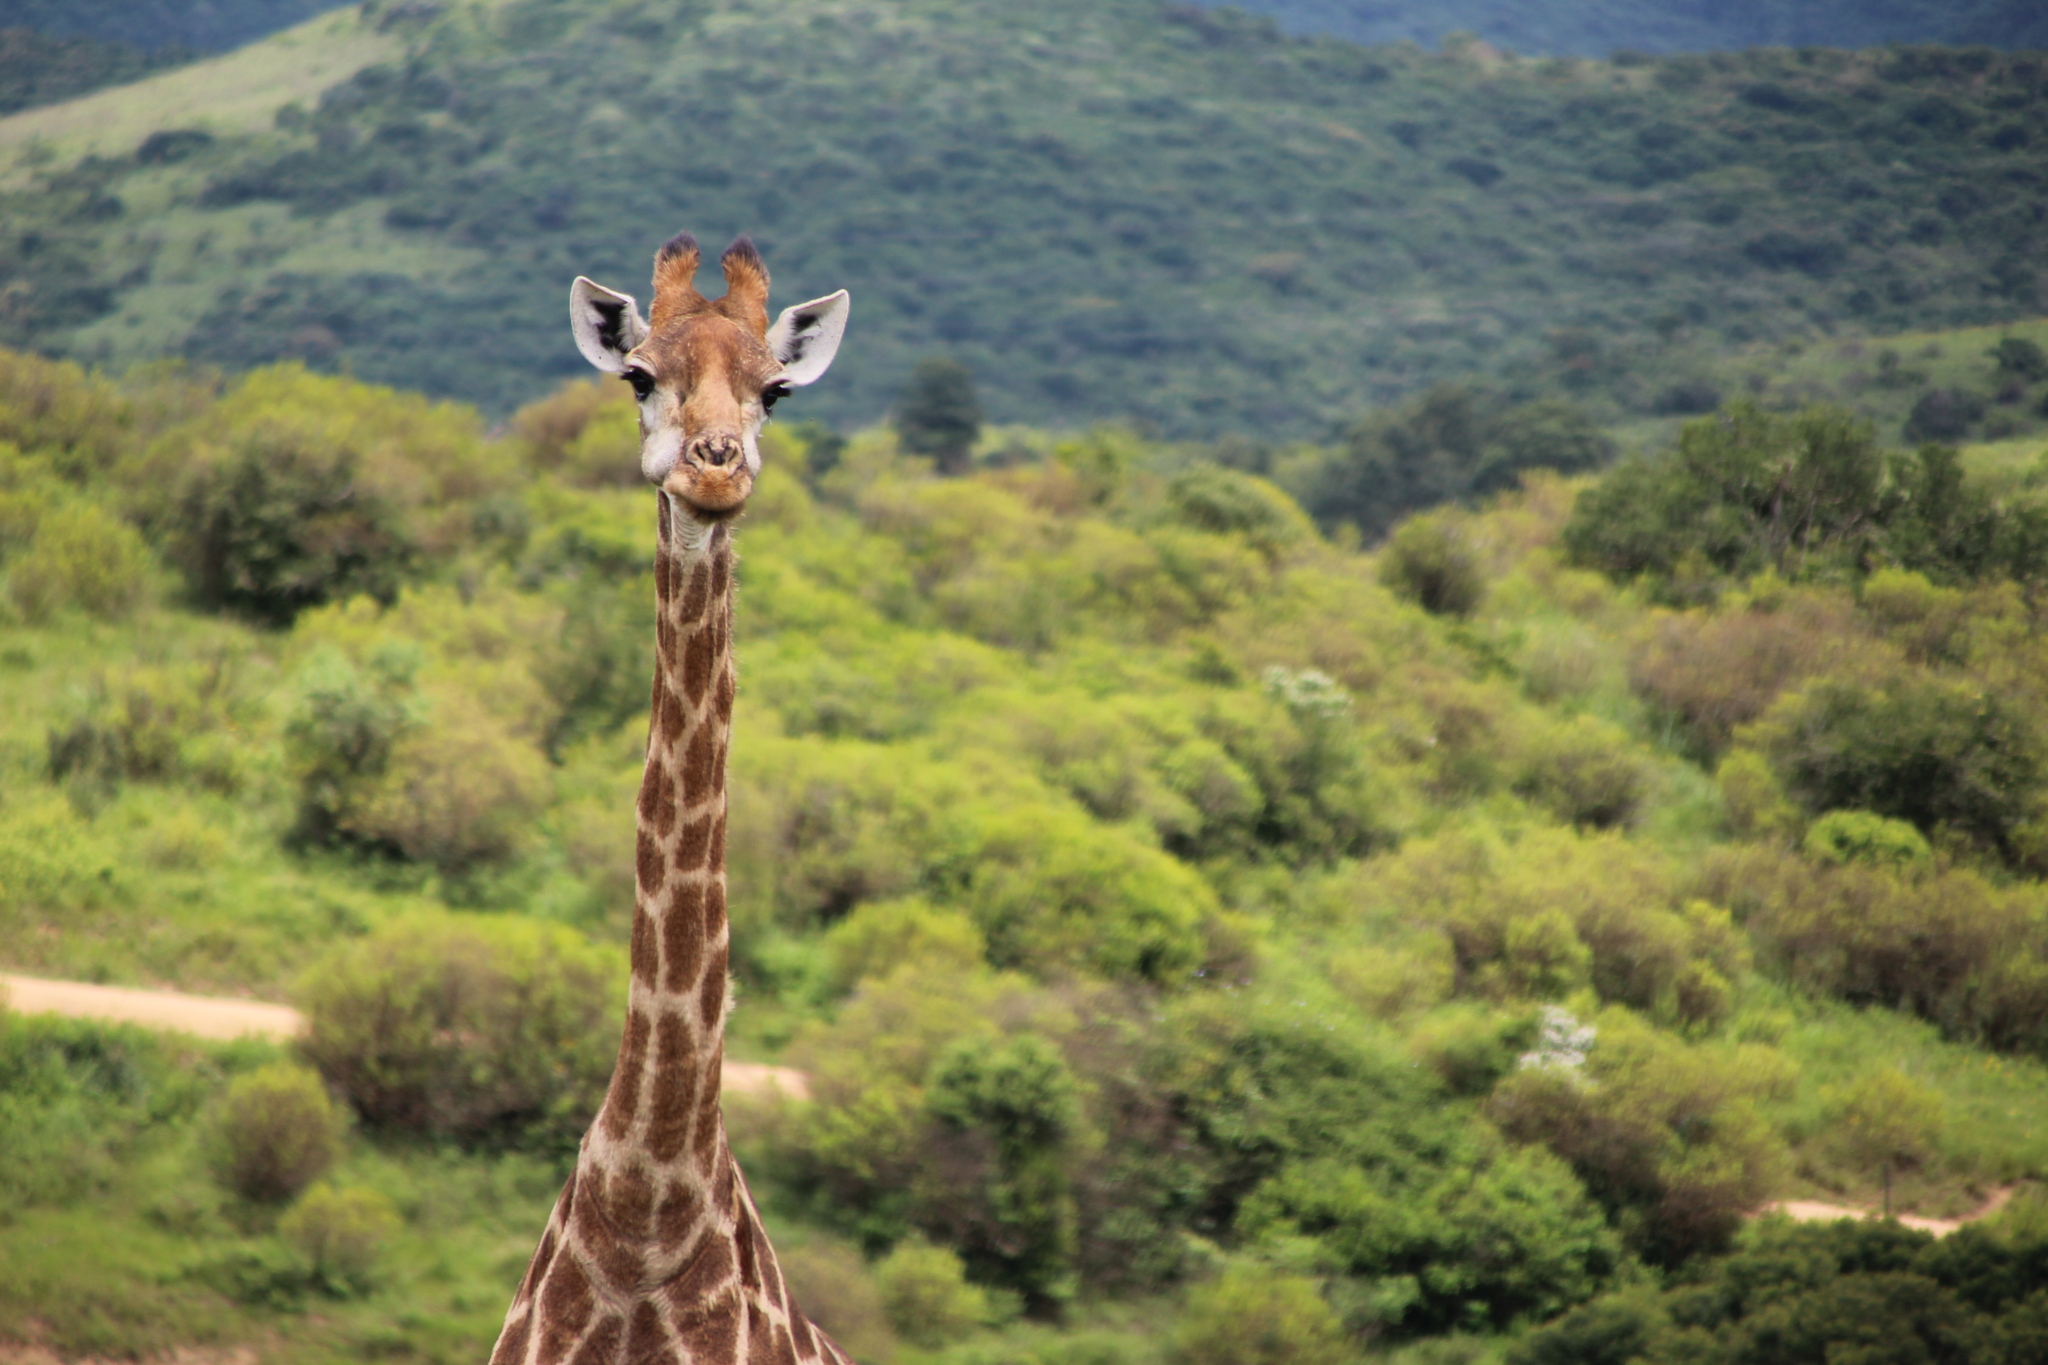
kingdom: Animalia
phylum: Chordata
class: Mammalia
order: Artiodactyla
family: Giraffidae
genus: Giraffa
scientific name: Giraffa giraffa
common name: Southern giraffe
